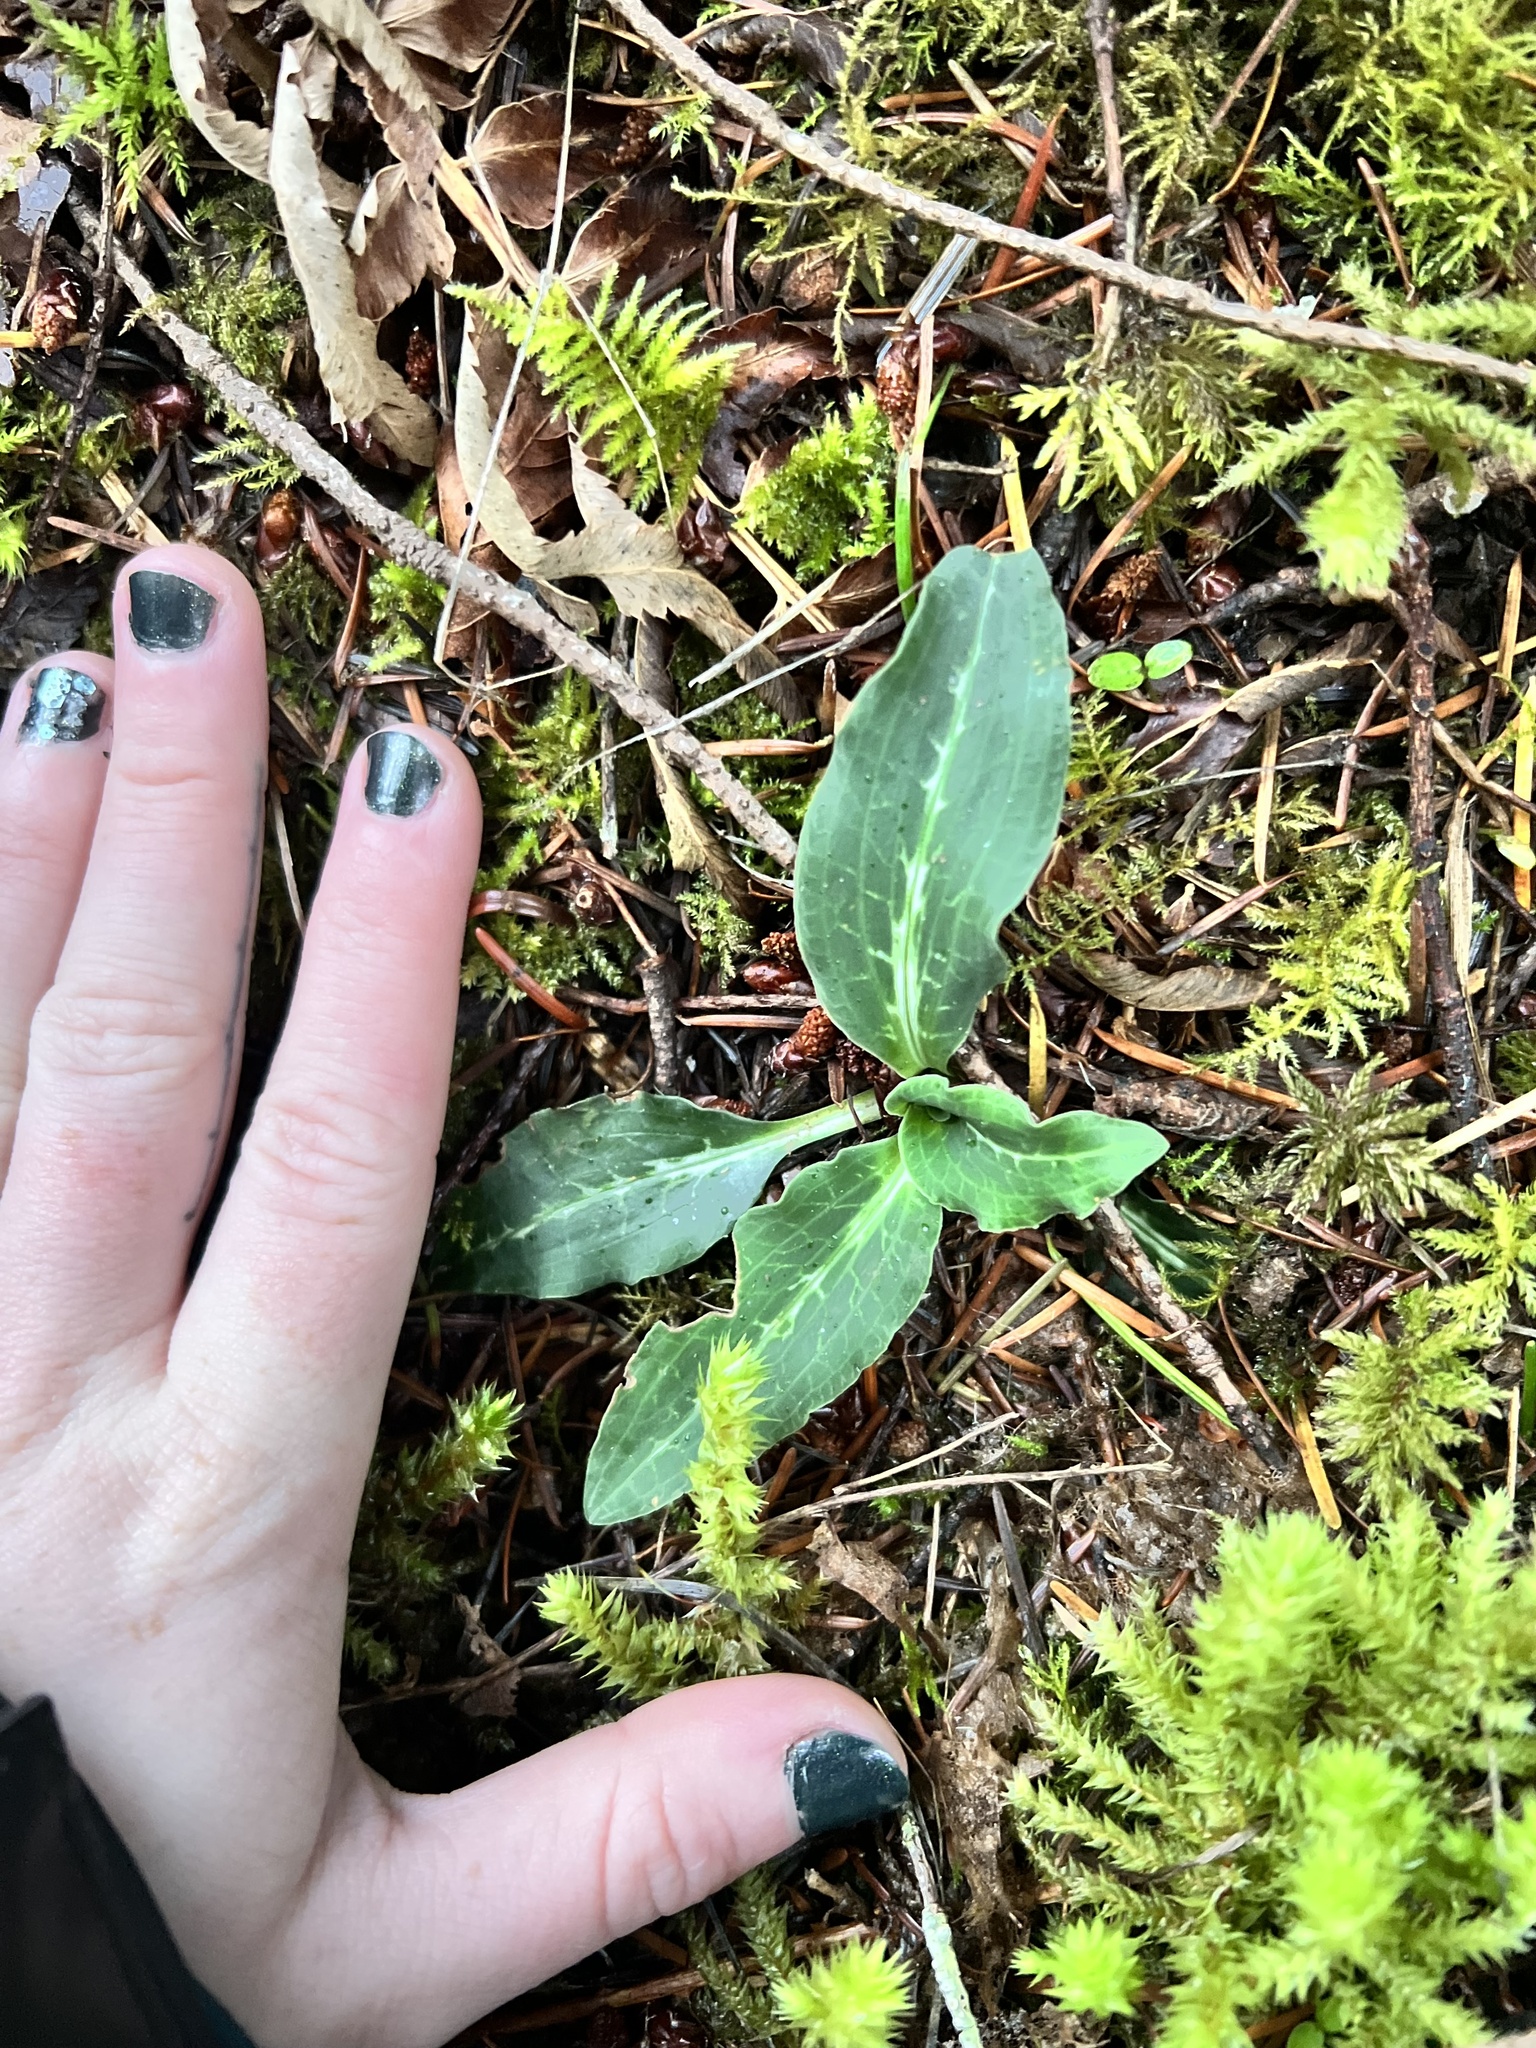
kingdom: Plantae
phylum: Tracheophyta
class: Liliopsida
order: Asparagales
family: Orchidaceae
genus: Goodyera
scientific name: Goodyera oblongifolia
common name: Giant rattlesnake-plantain
